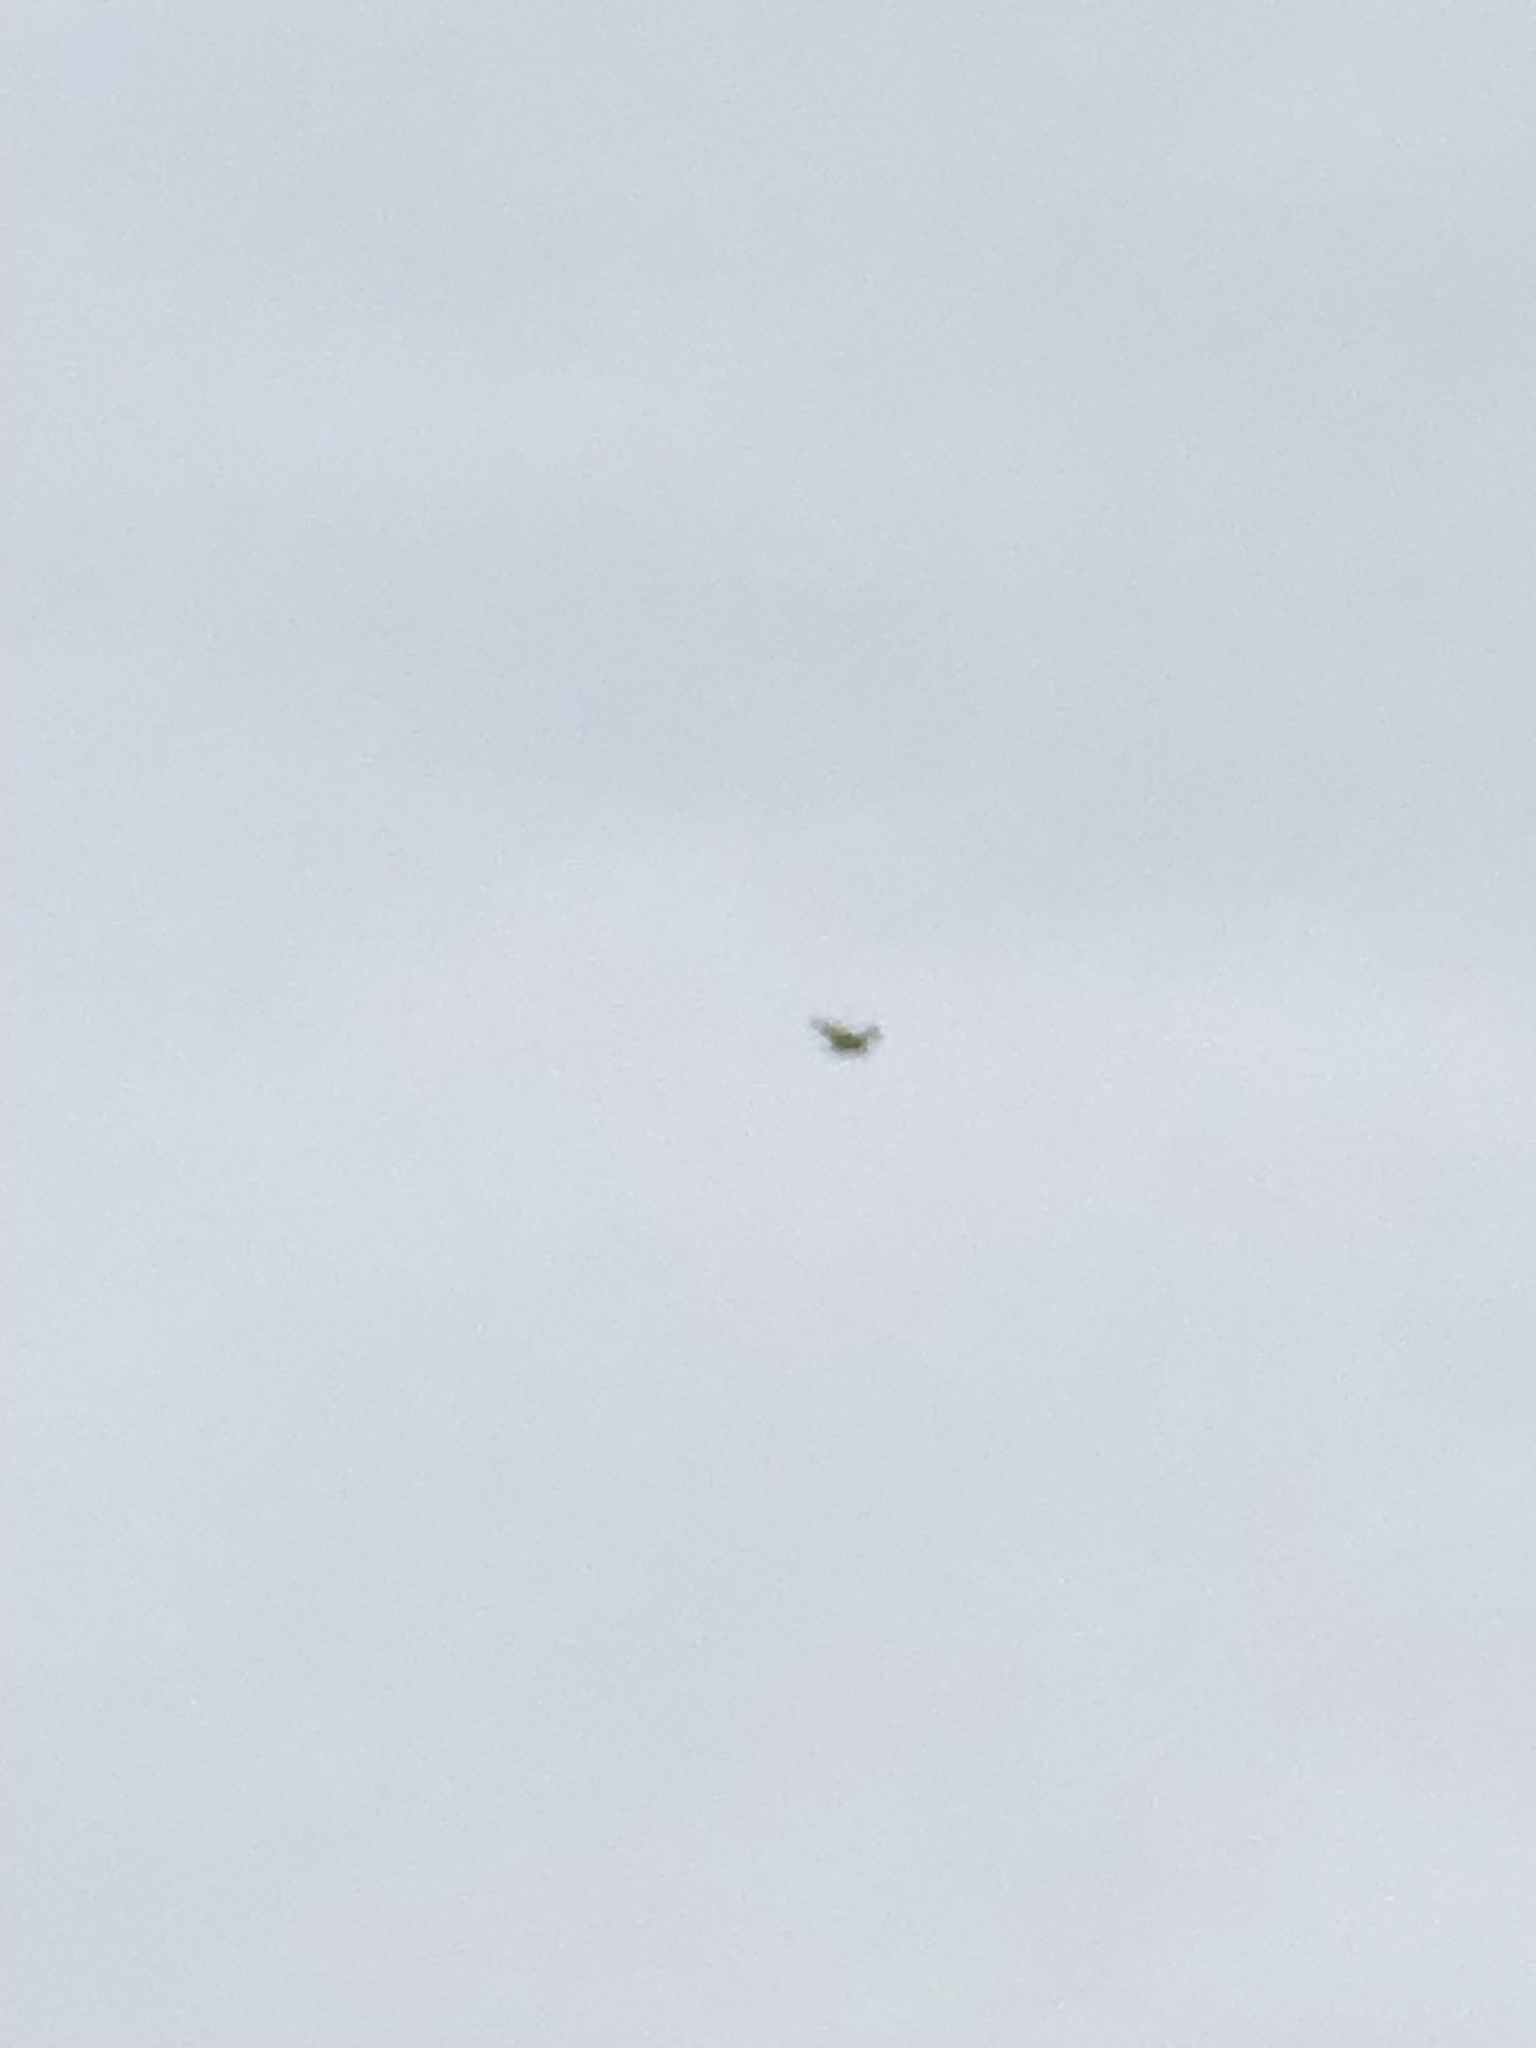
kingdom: Animalia
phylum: Chordata
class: Aves
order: Accipitriformes
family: Cathartidae
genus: Cathartes
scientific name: Cathartes aura
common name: Turkey vulture
